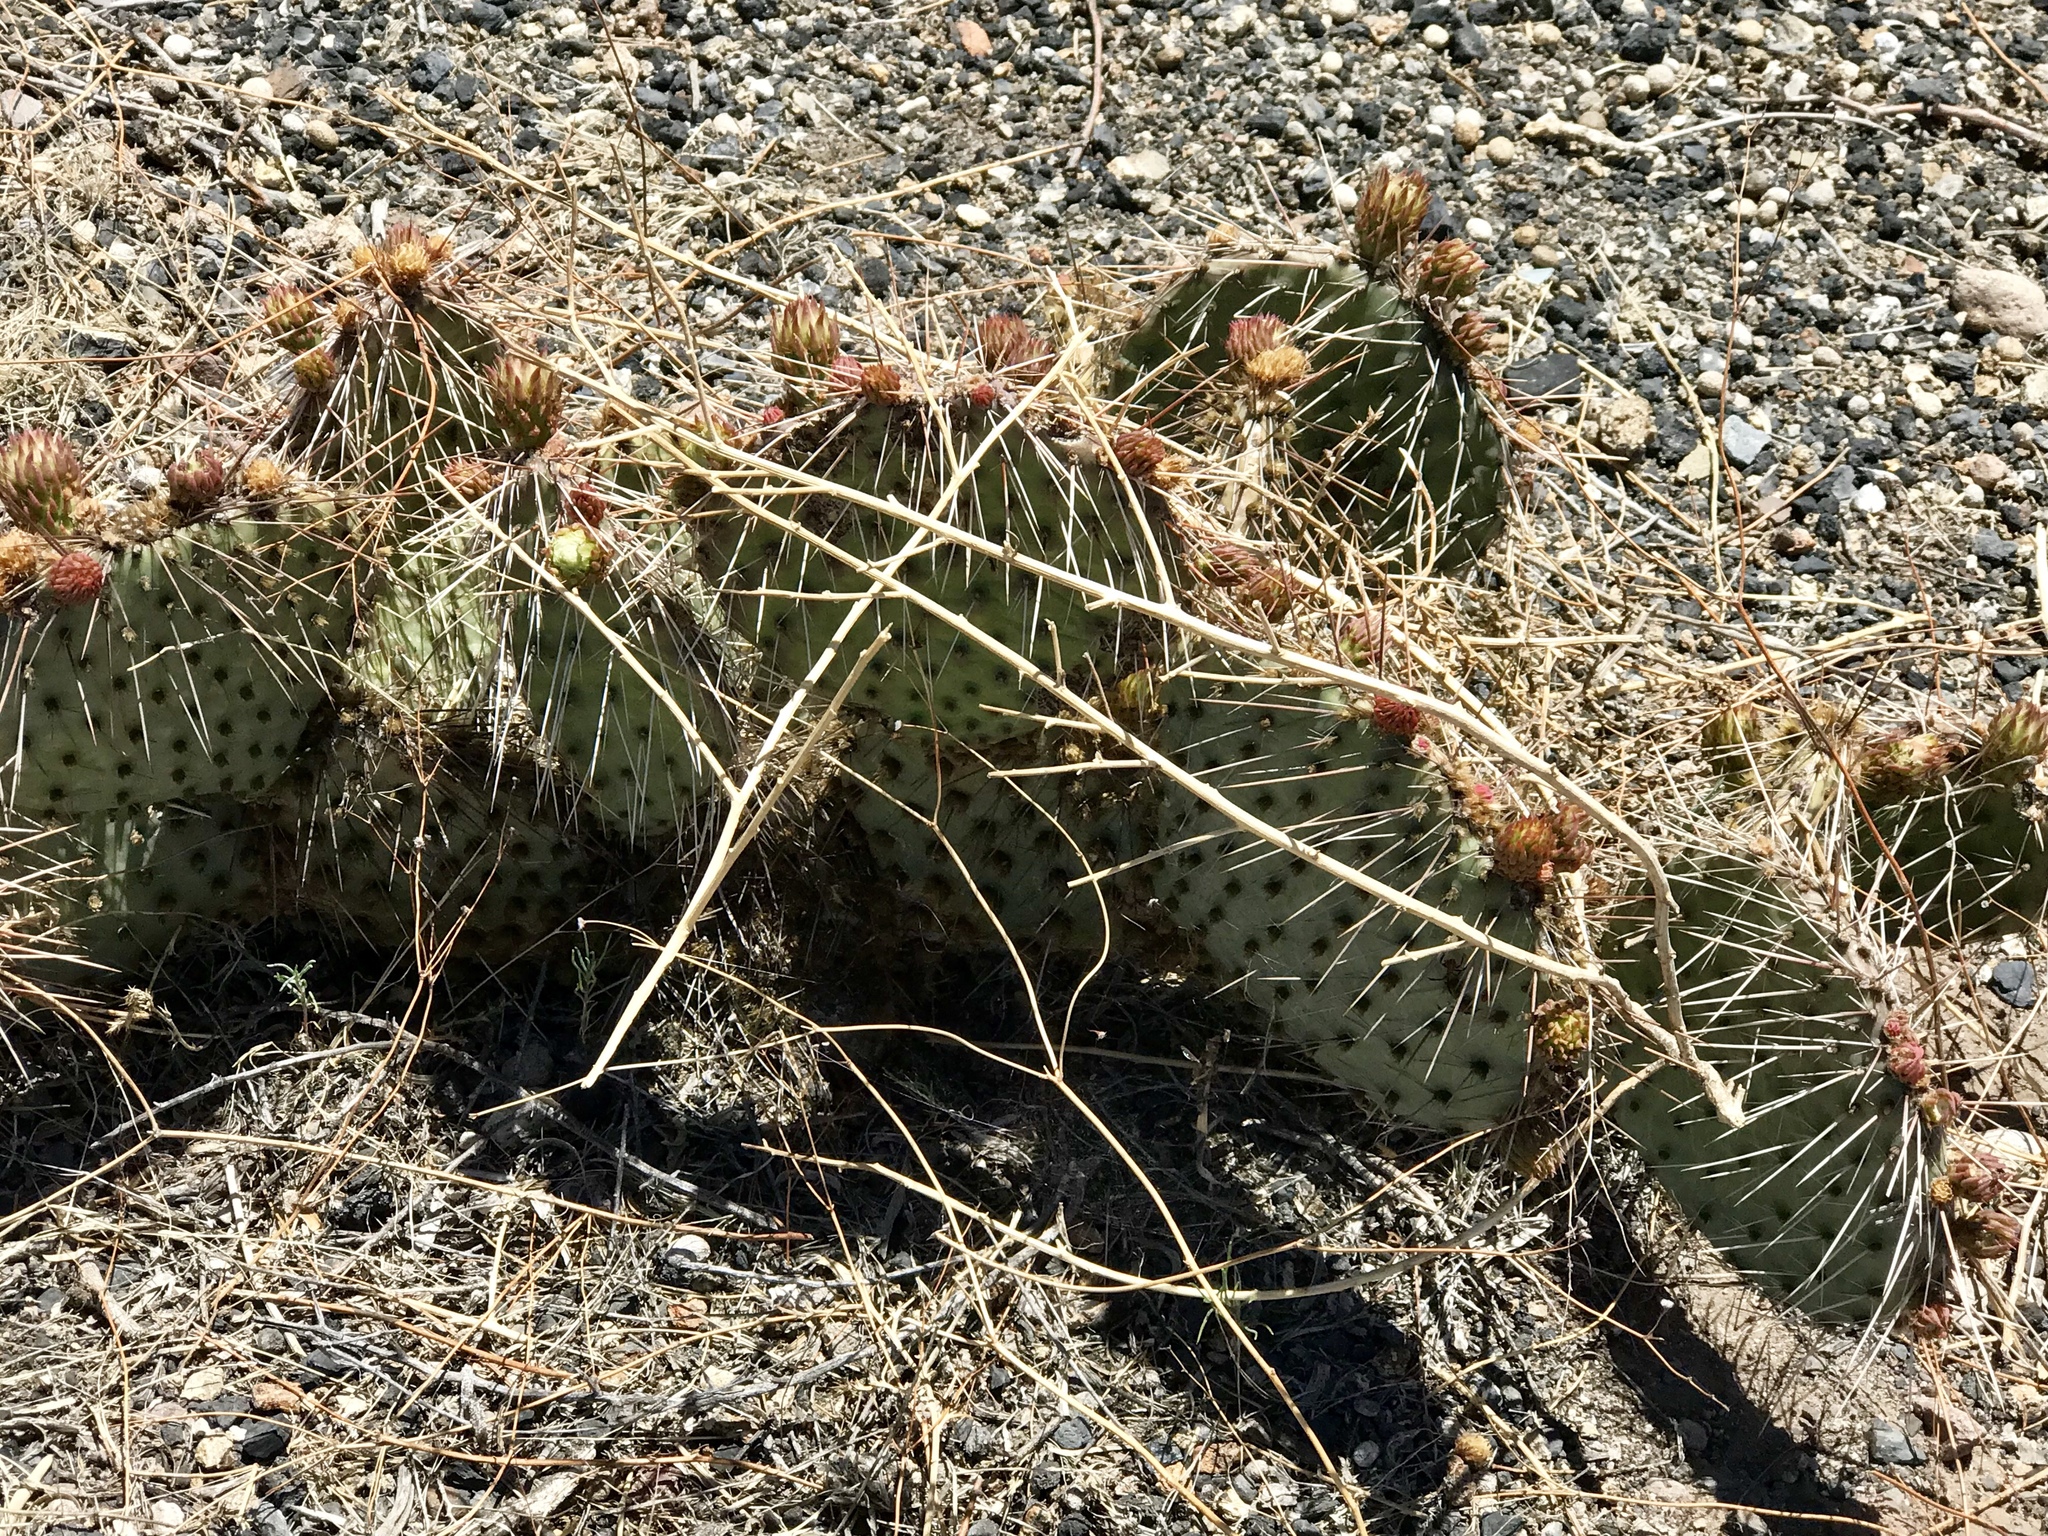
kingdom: Plantae
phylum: Tracheophyta
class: Magnoliopsida
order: Caryophyllales
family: Cactaceae
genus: Opuntia
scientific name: Opuntia cymochila
